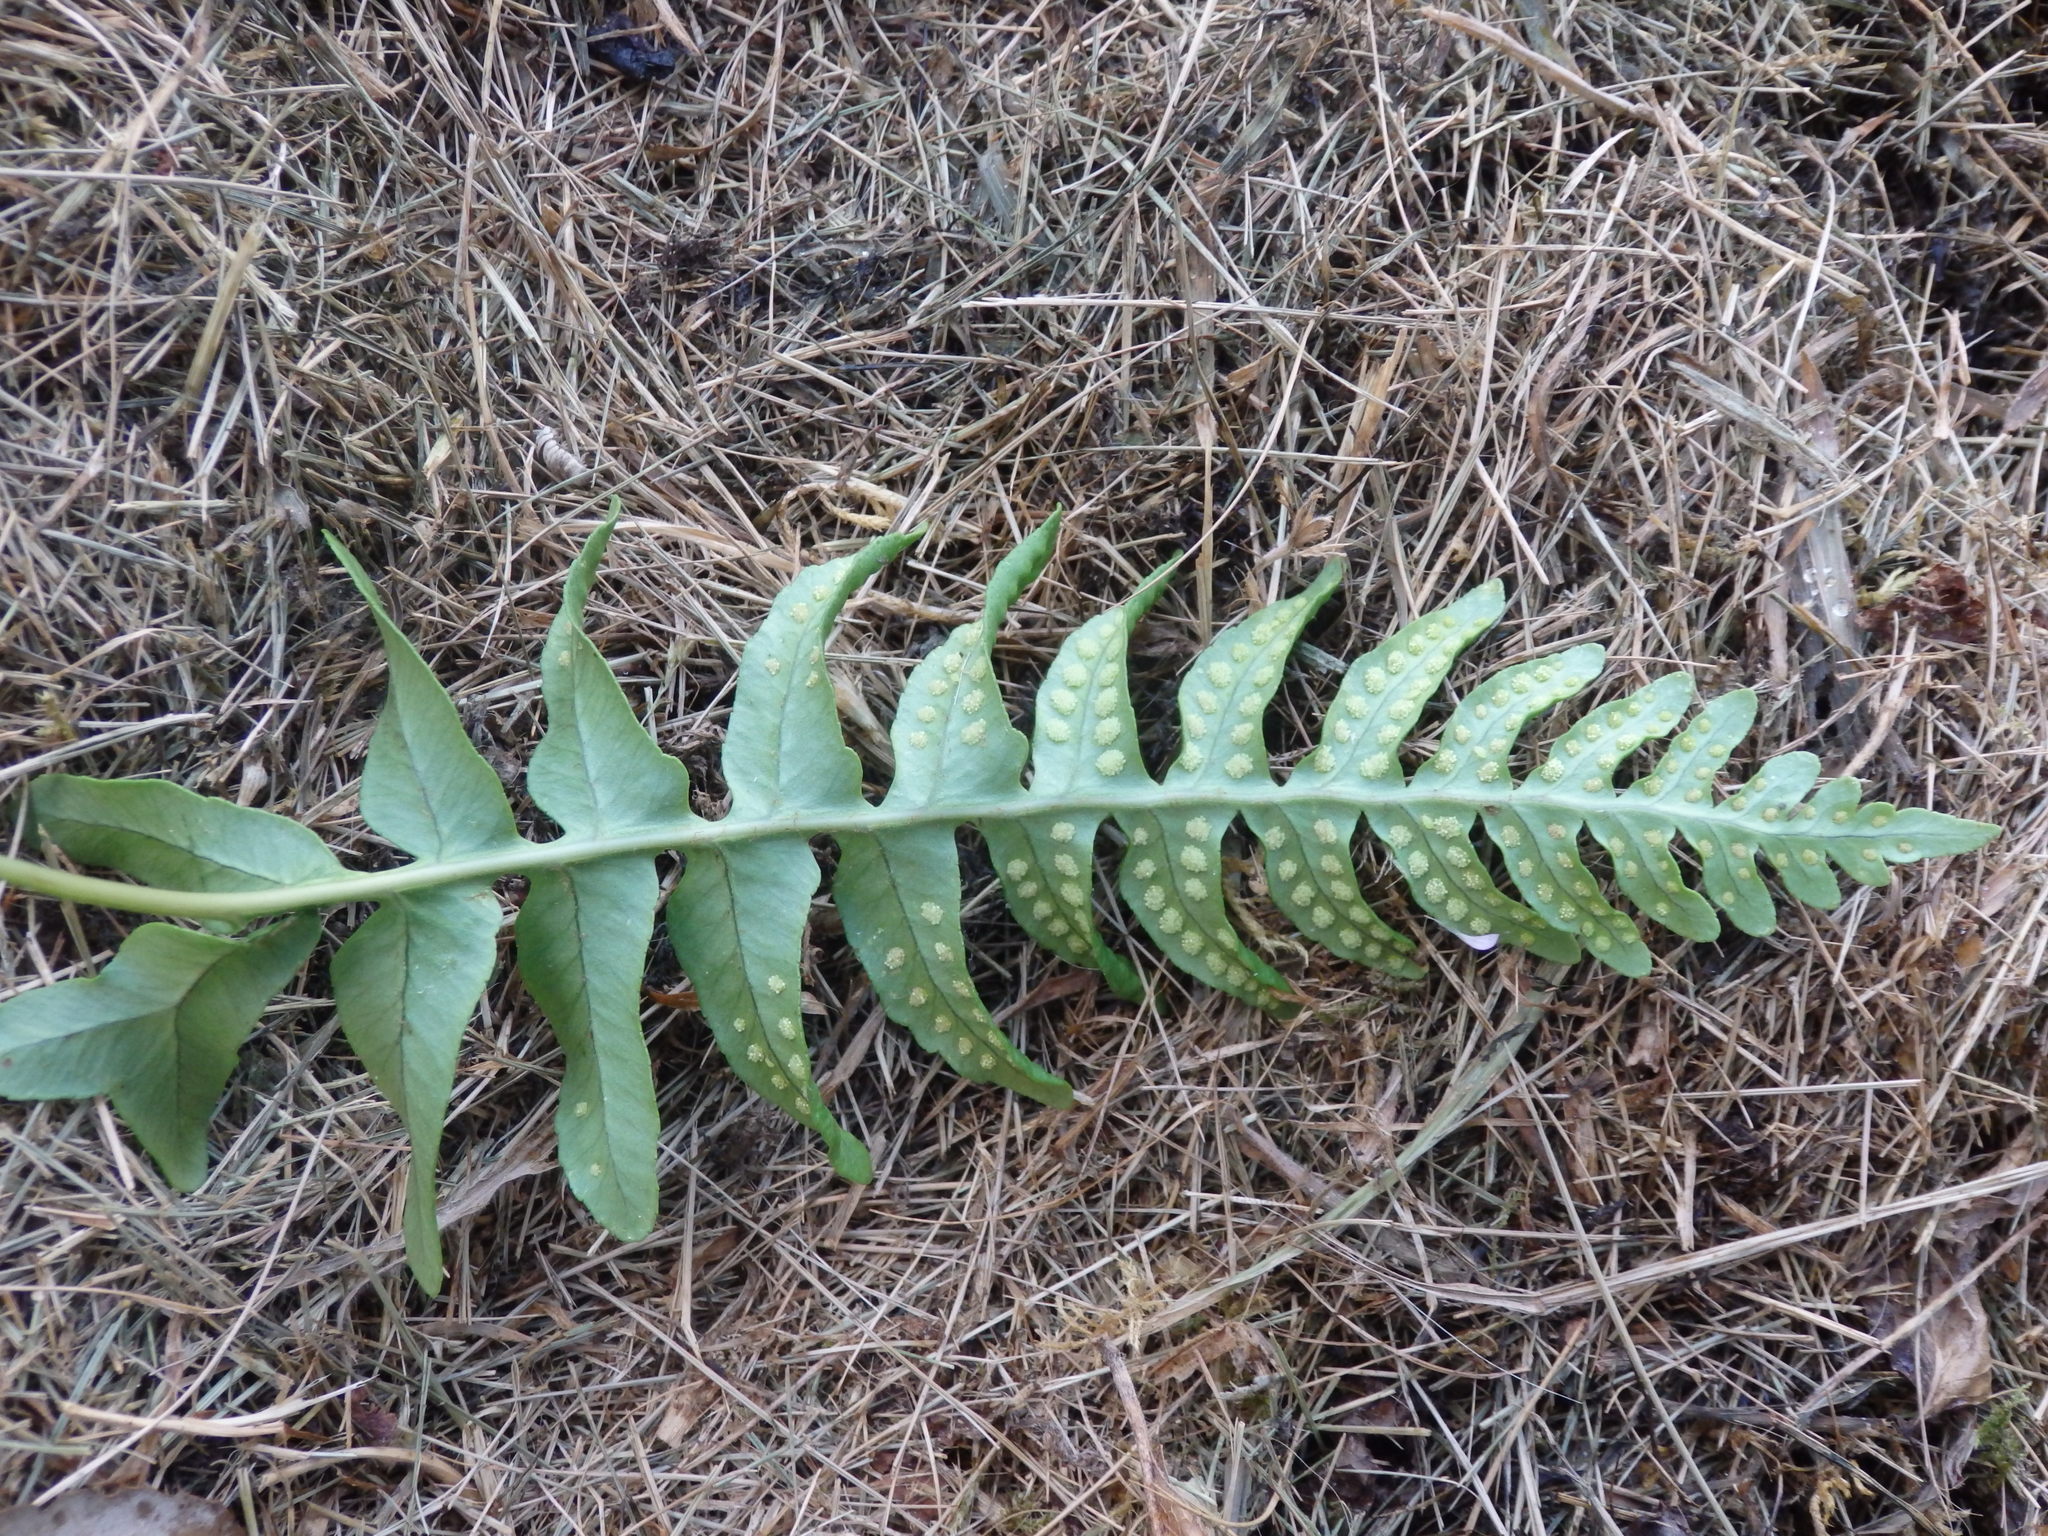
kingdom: Plantae
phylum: Tracheophyta
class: Polypodiopsida
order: Polypodiales
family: Polypodiaceae
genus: Polypodium
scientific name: Polypodium interjectum
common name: Intermediate polypody
